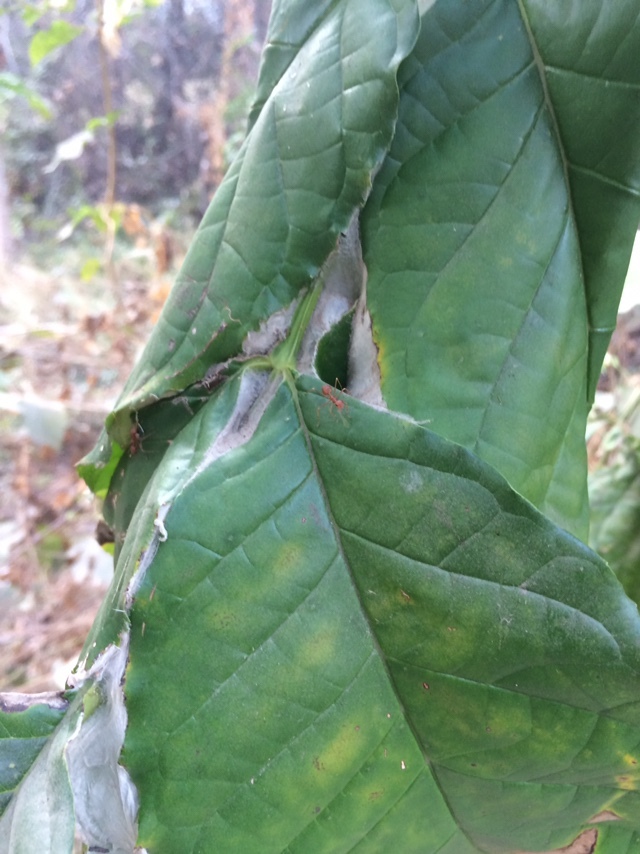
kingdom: Animalia
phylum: Arthropoda
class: Insecta
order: Hymenoptera
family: Formicidae
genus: Oecophylla
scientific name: Oecophylla smaragdina
